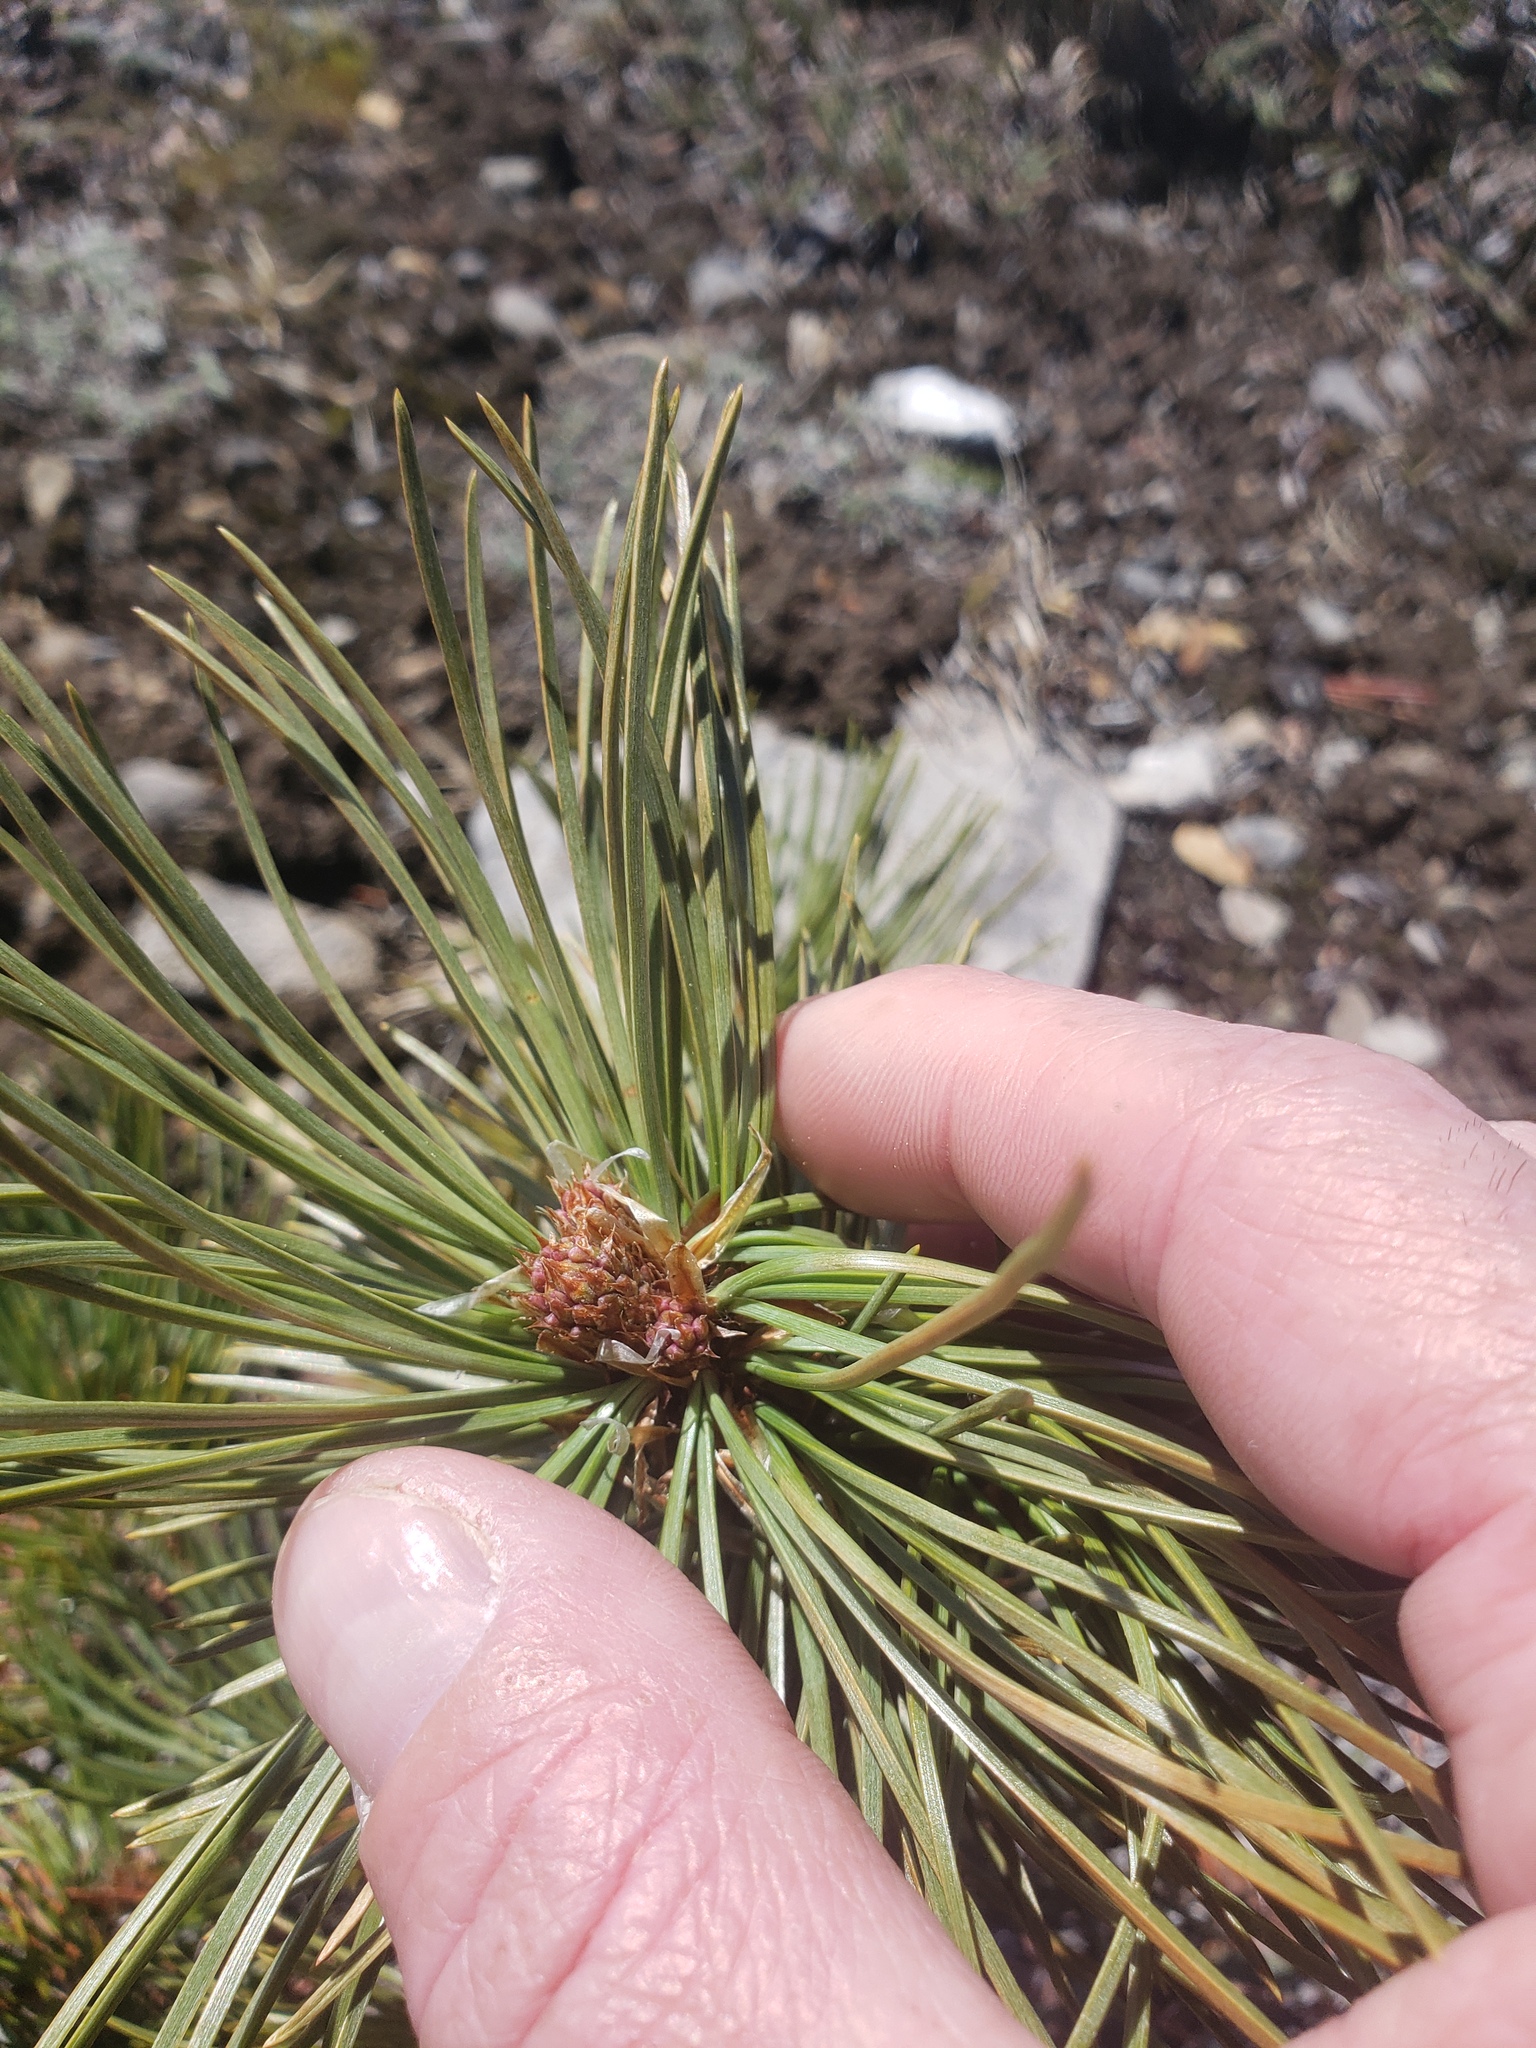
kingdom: Plantae
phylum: Tracheophyta
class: Pinopsida
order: Pinales
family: Pinaceae
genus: Pinus
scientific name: Pinus albicaulis
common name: Whitebark pine
